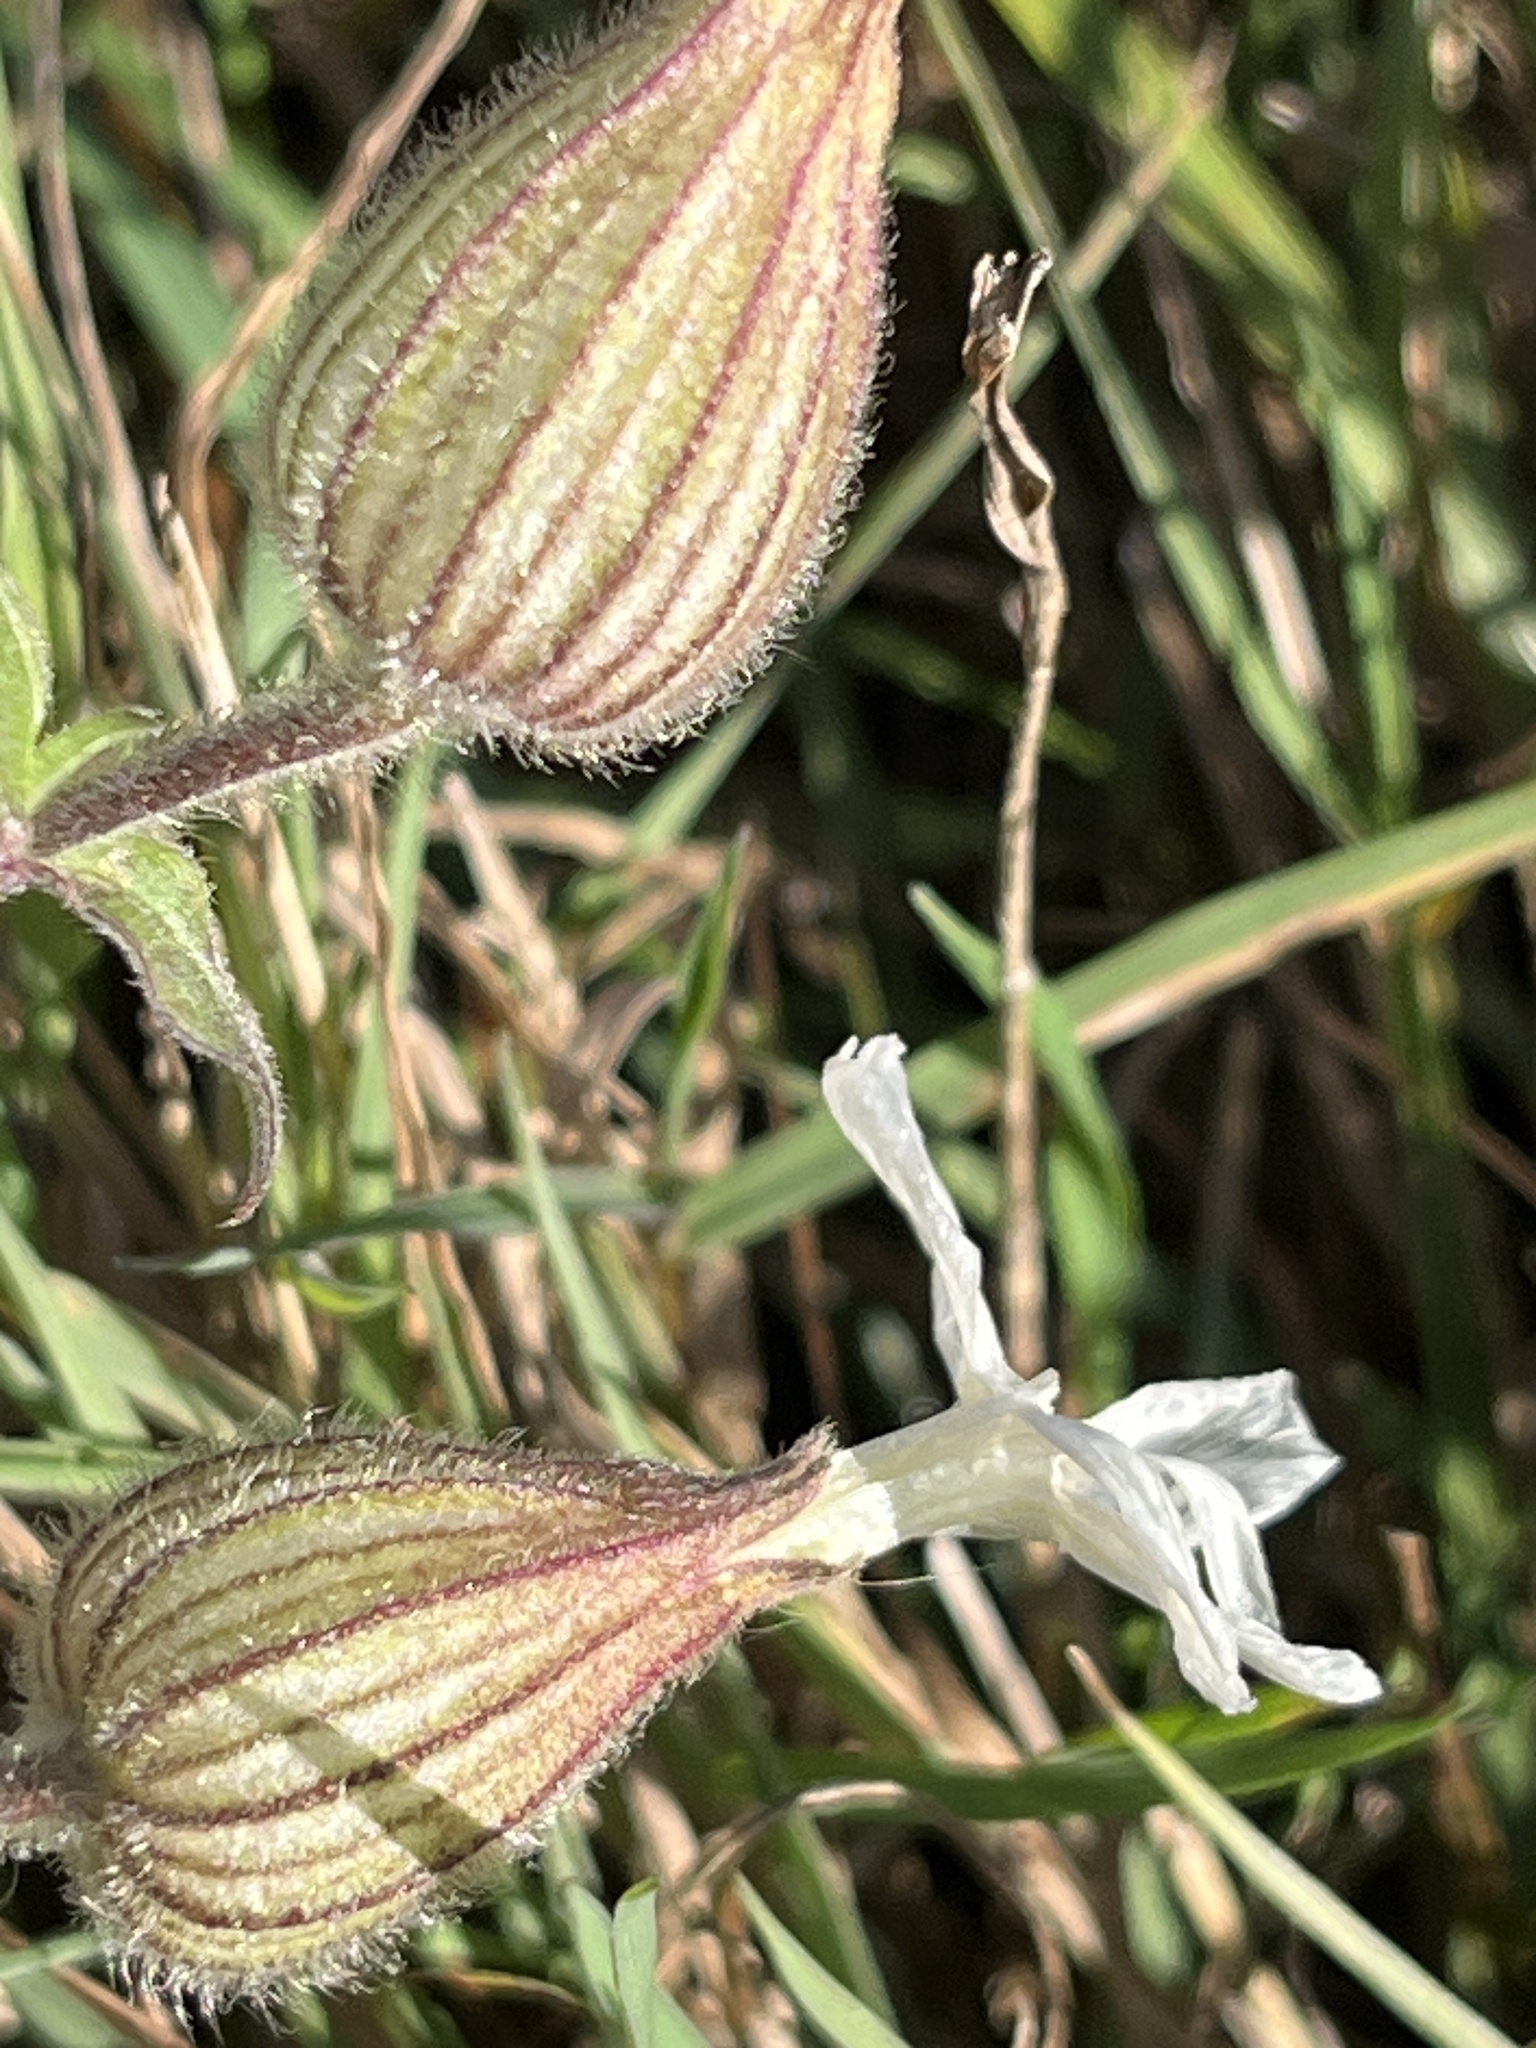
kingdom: Plantae
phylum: Tracheophyta
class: Magnoliopsida
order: Caryophyllales
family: Caryophyllaceae
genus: Silene
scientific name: Silene latifolia
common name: White campion
